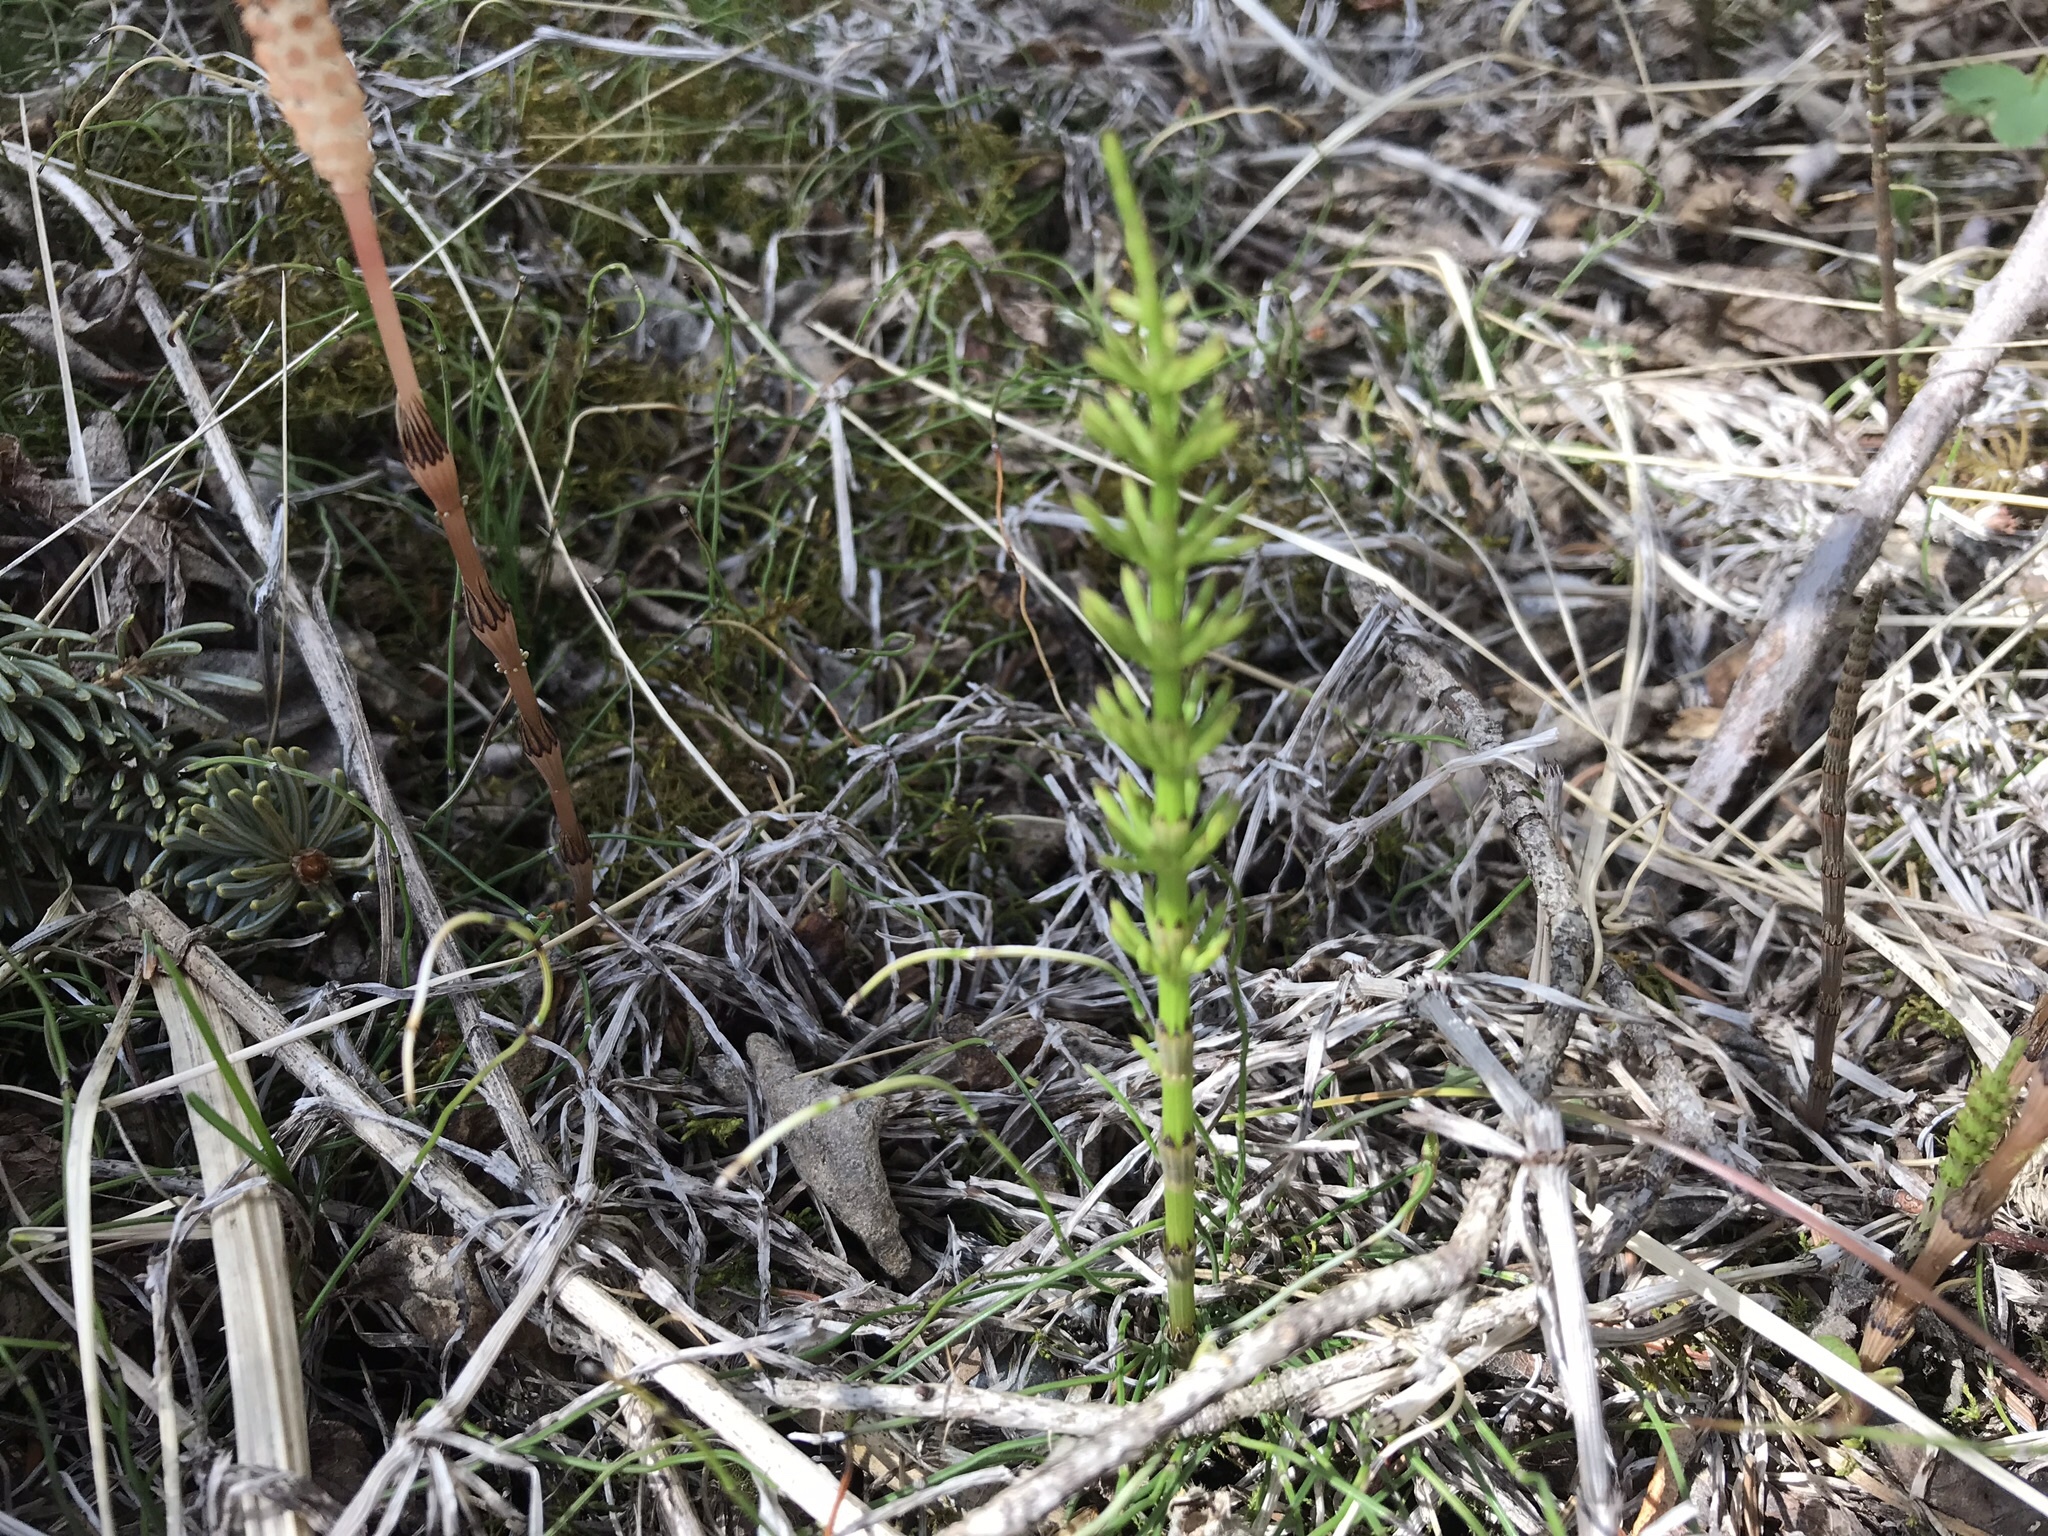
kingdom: Plantae
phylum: Tracheophyta
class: Polypodiopsida
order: Equisetales
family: Equisetaceae
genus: Equisetum
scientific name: Equisetum pratense
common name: Meadow horsetail
